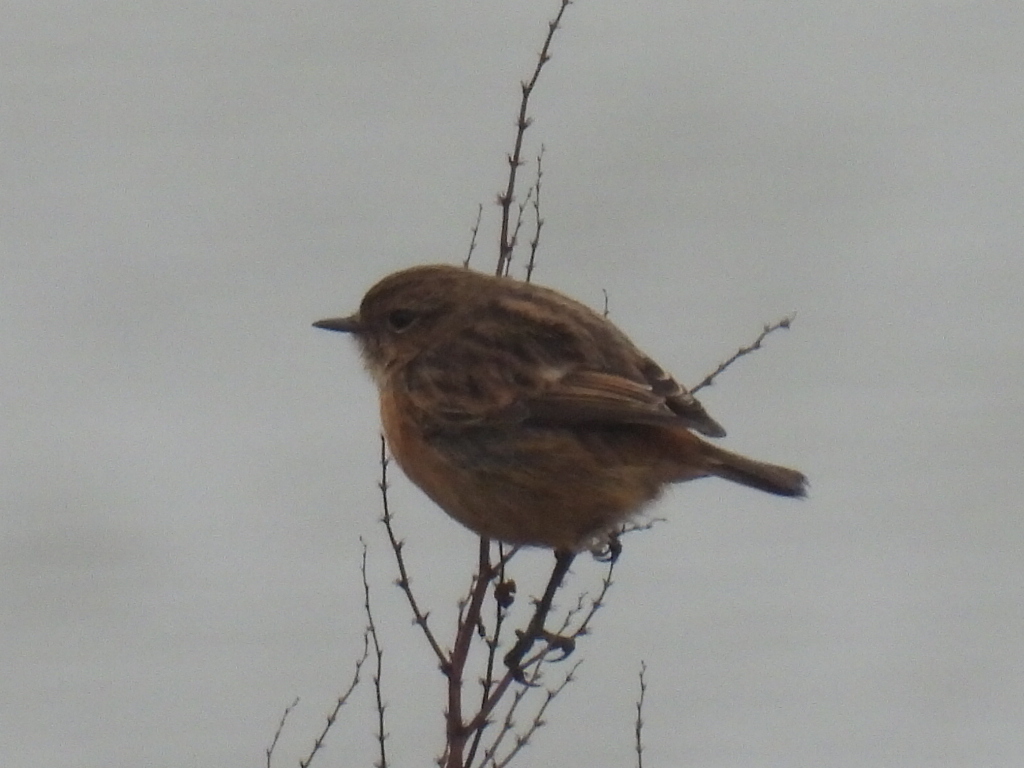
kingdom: Animalia
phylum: Chordata
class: Aves
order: Passeriformes
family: Muscicapidae
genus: Saxicola
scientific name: Saxicola rubicola
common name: European stonechat
